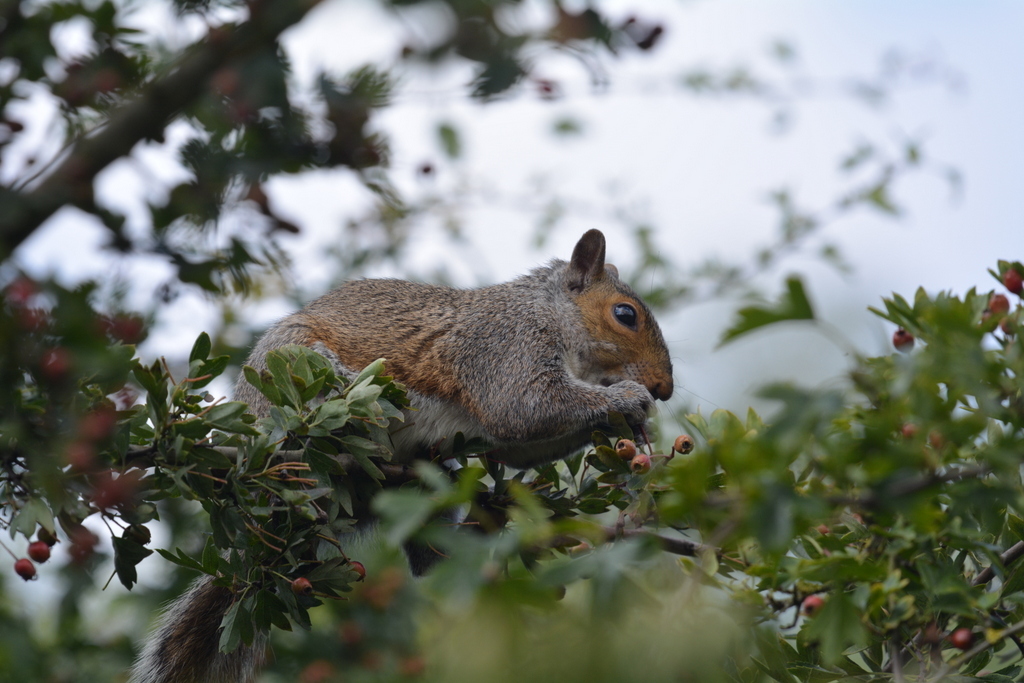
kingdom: Animalia
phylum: Chordata
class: Mammalia
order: Rodentia
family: Sciuridae
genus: Sciurus
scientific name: Sciurus carolinensis
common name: Eastern gray squirrel
